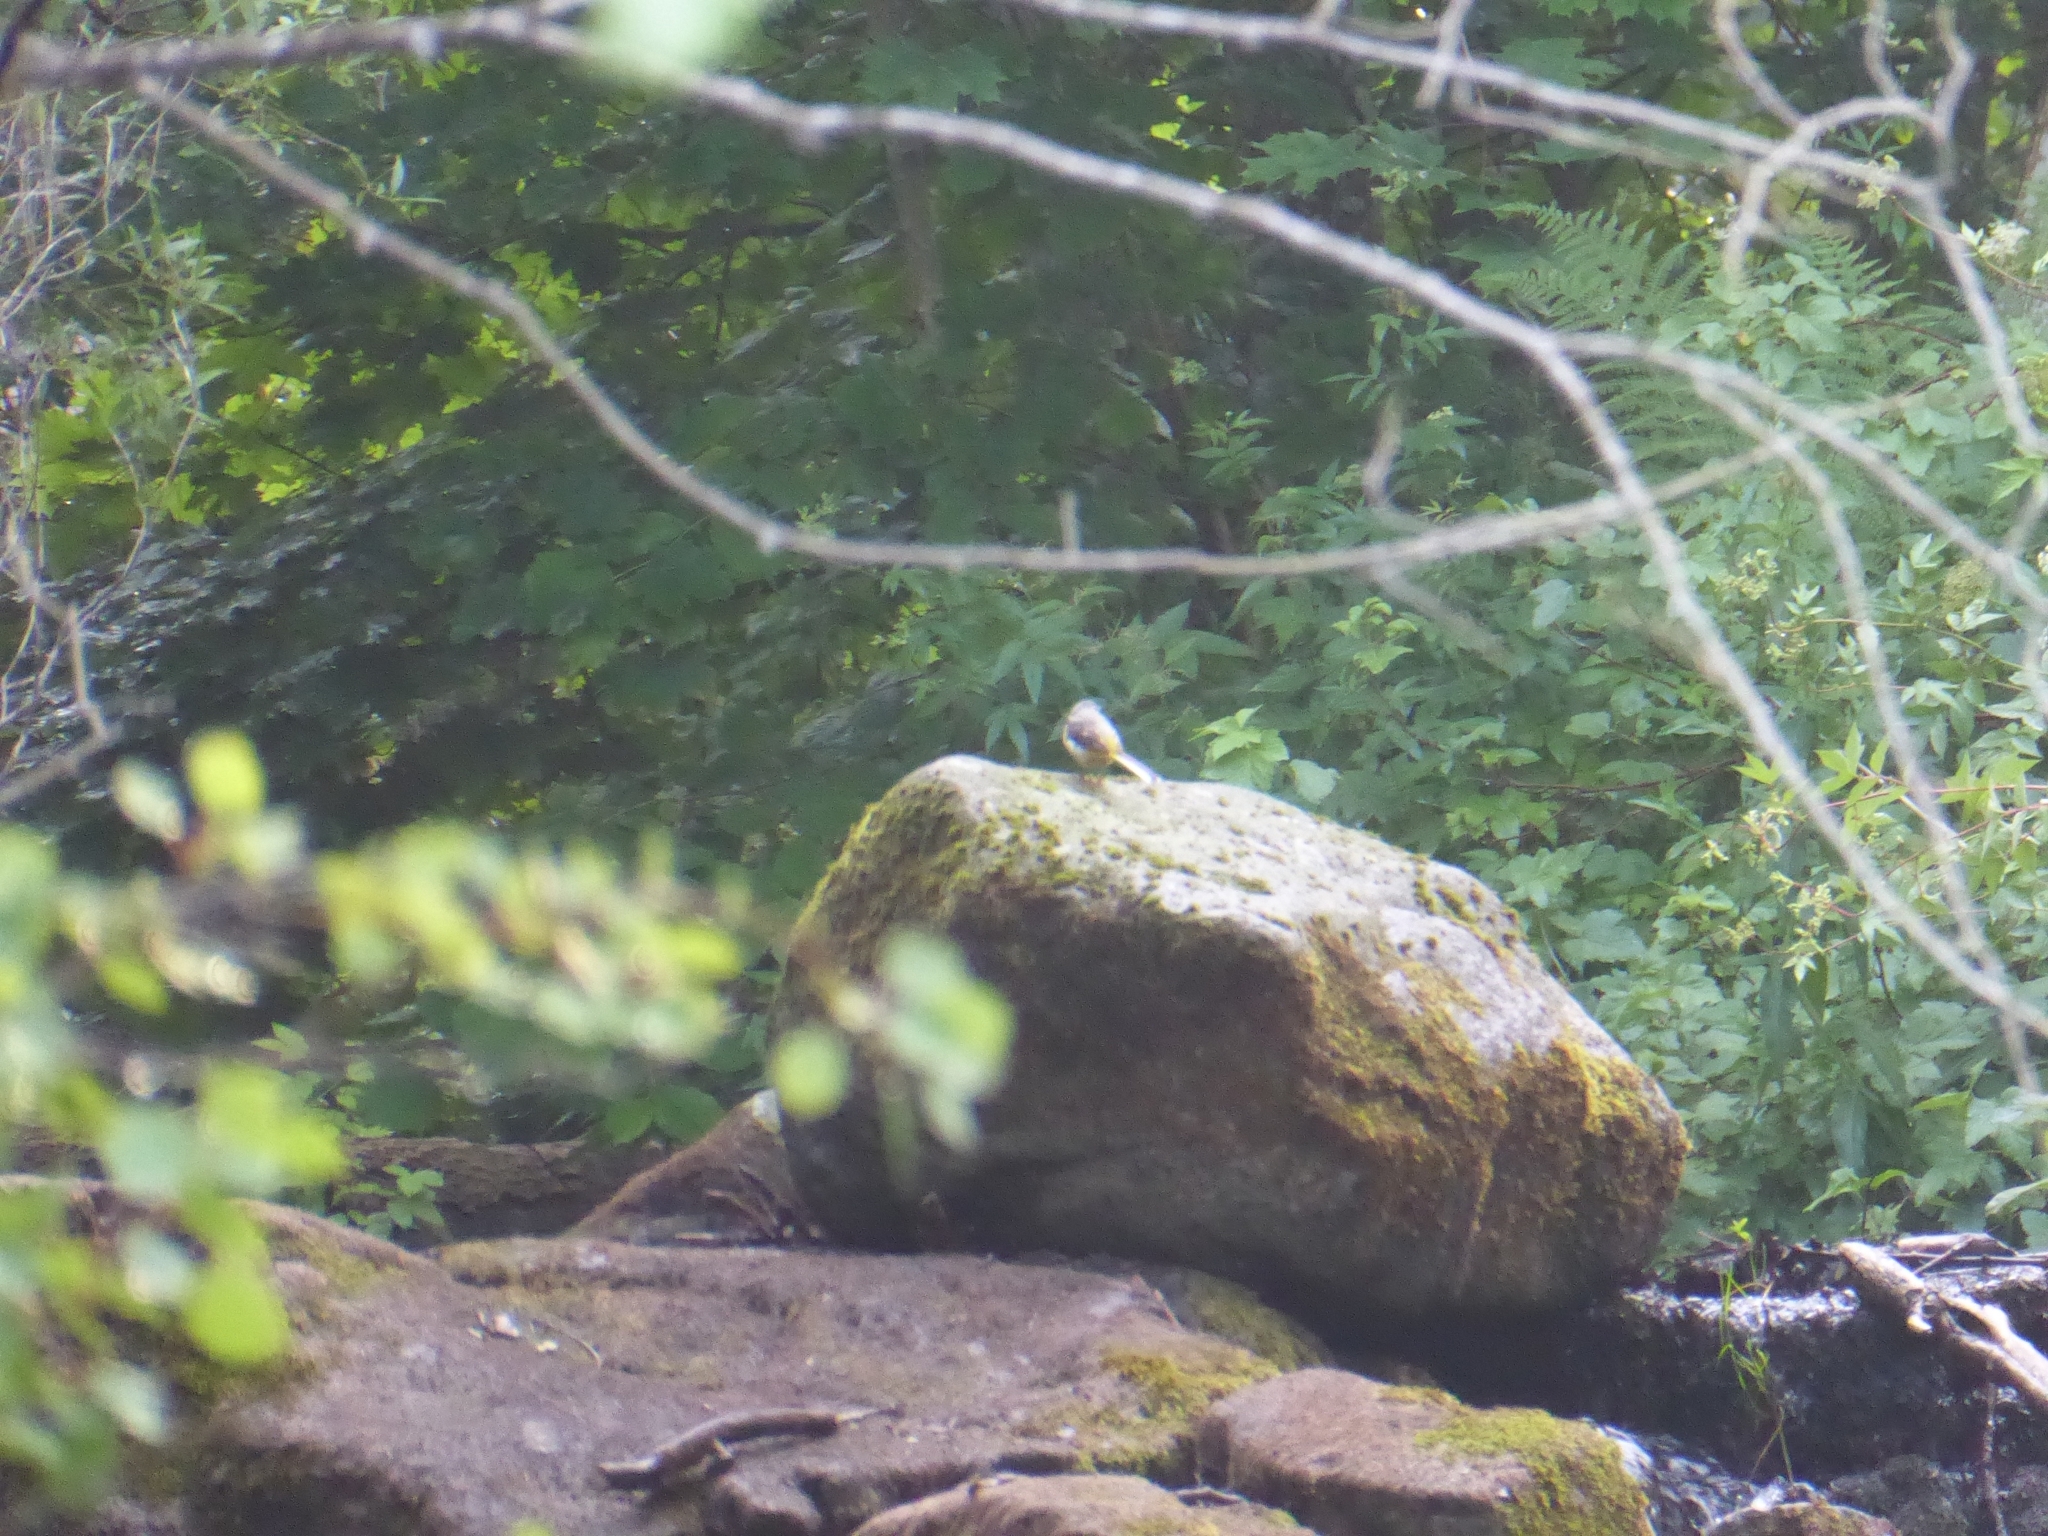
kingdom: Animalia
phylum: Chordata
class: Aves
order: Passeriformes
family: Motacillidae
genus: Motacilla
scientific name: Motacilla cinerea
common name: Grey wagtail
